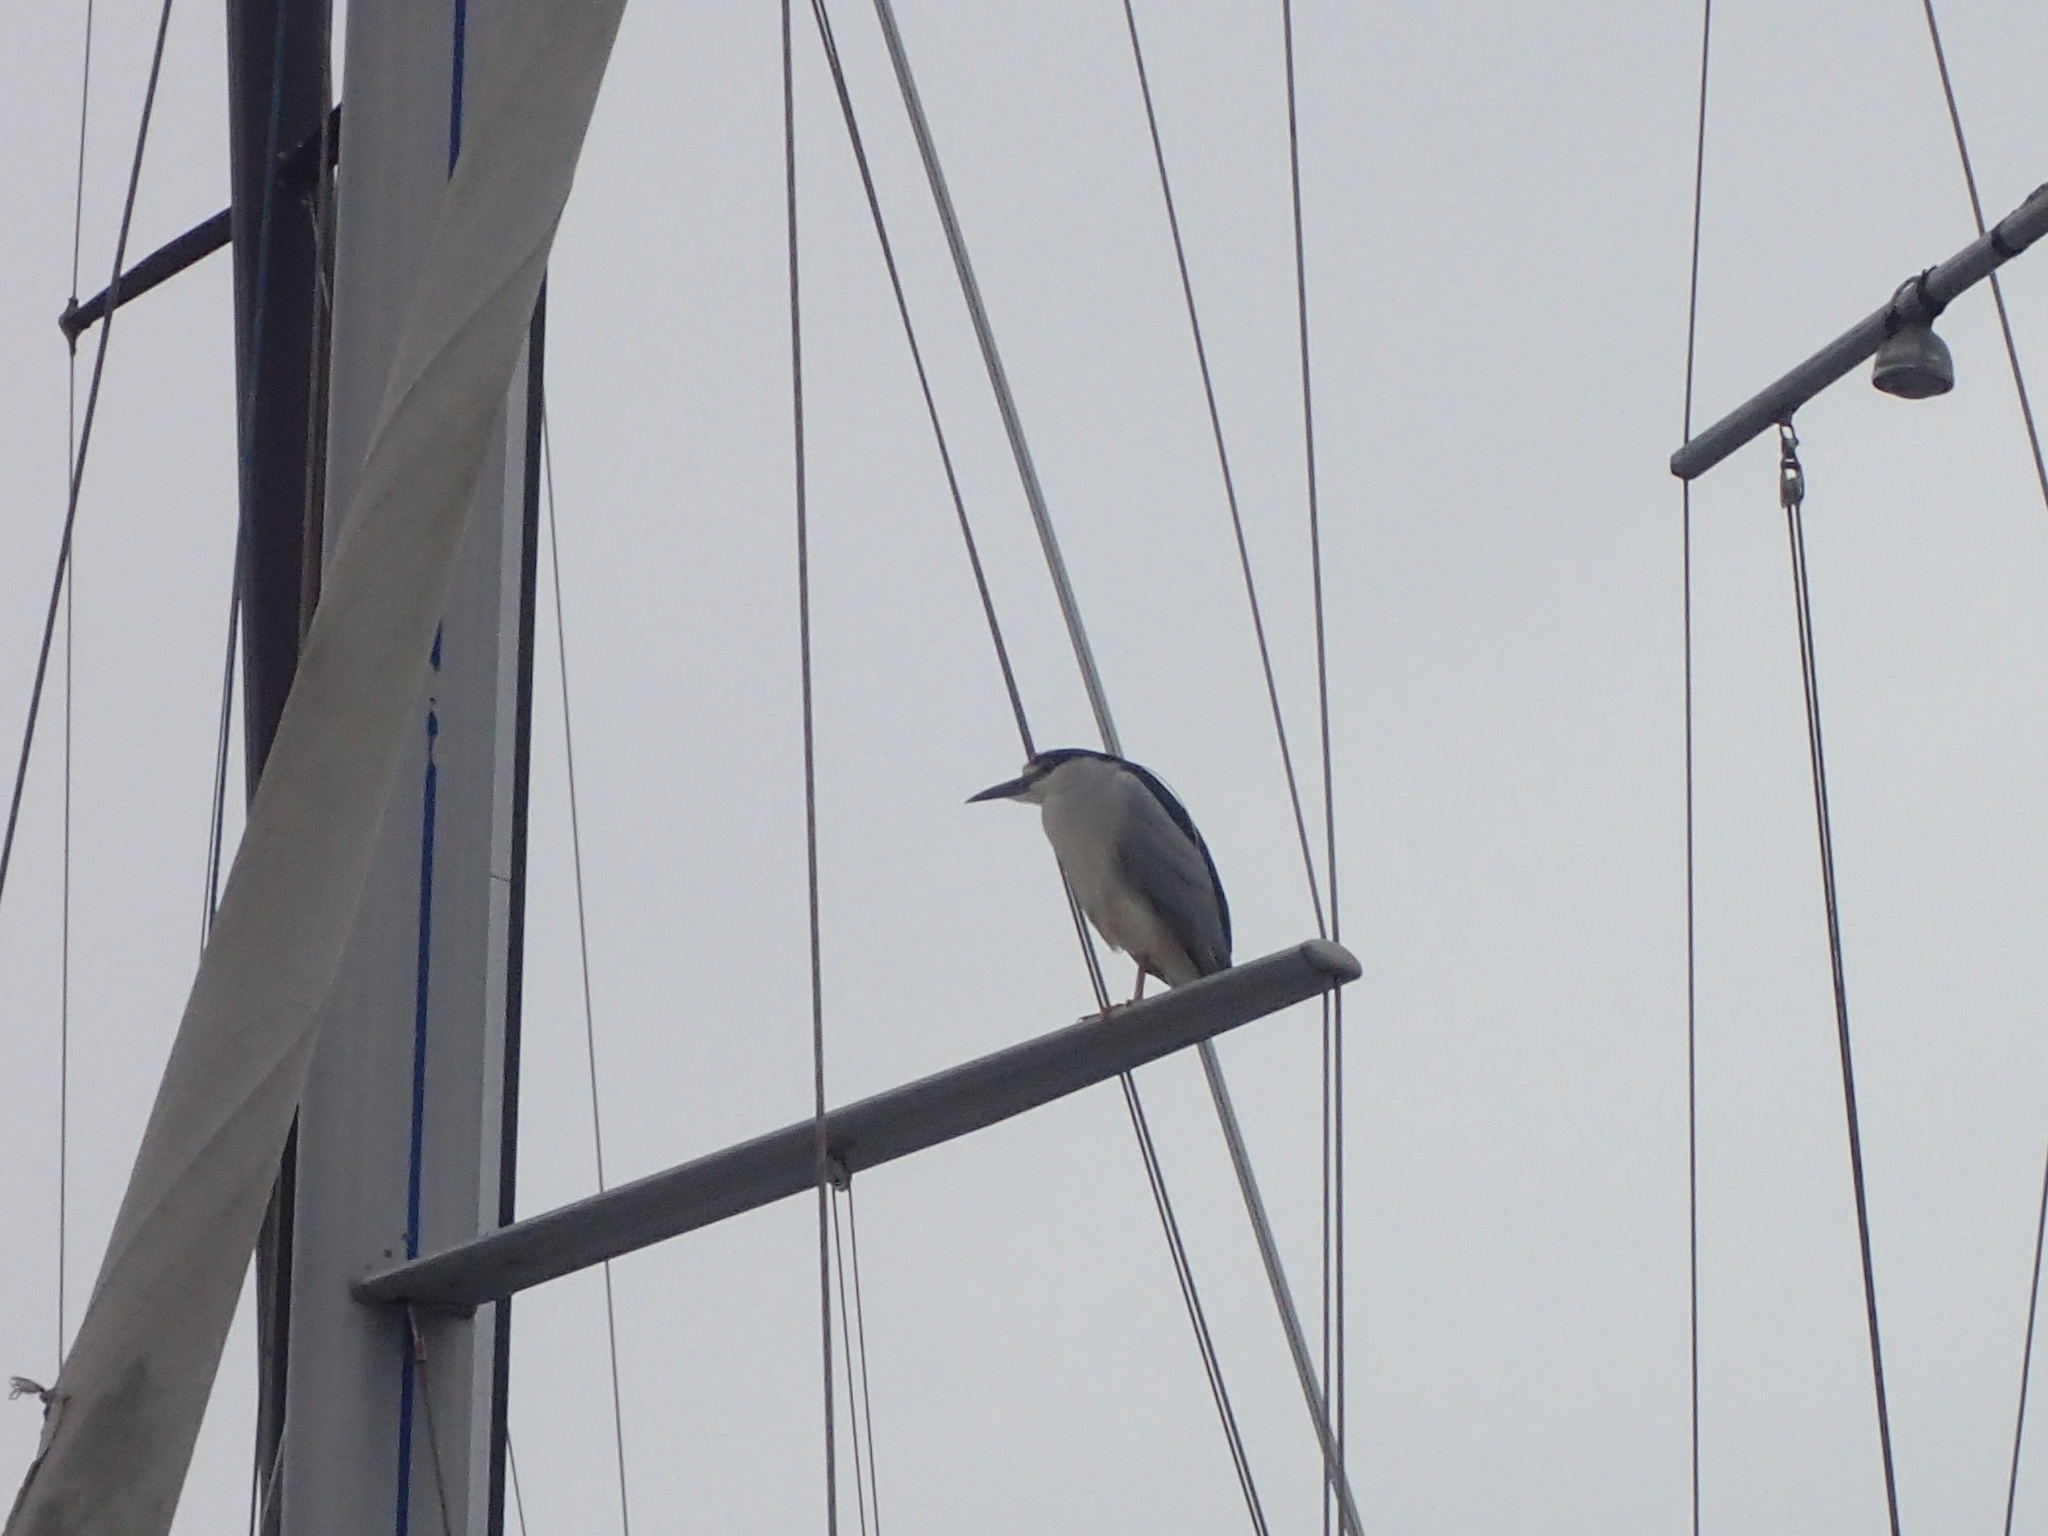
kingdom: Animalia
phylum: Chordata
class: Aves
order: Pelecaniformes
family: Ardeidae
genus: Nycticorax
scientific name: Nycticorax nycticorax
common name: Black-crowned night heron
